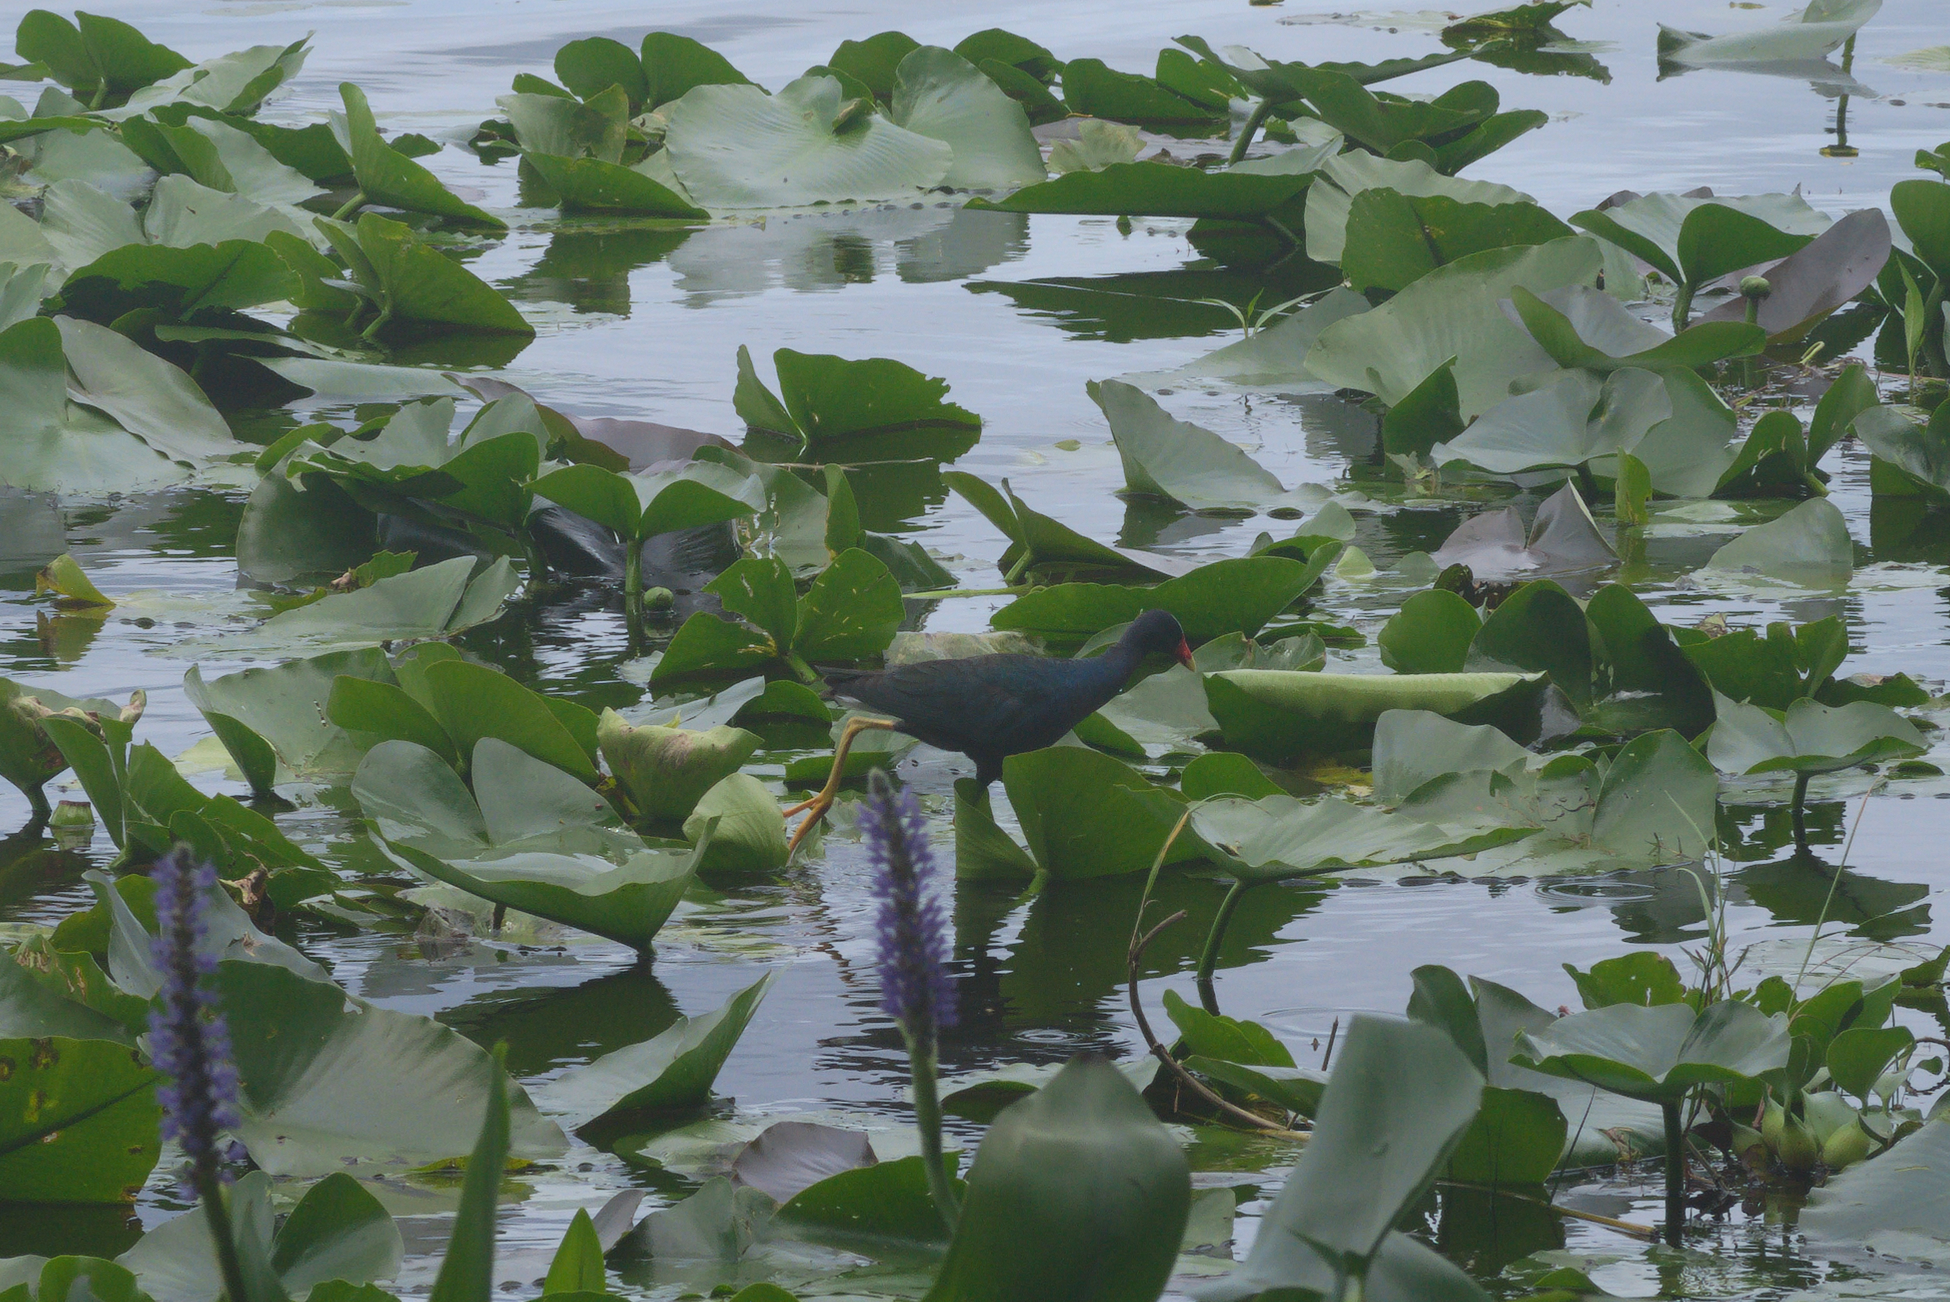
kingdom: Animalia
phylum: Chordata
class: Aves
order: Gruiformes
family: Rallidae
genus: Porphyrio
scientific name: Porphyrio martinica
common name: Purple gallinule
